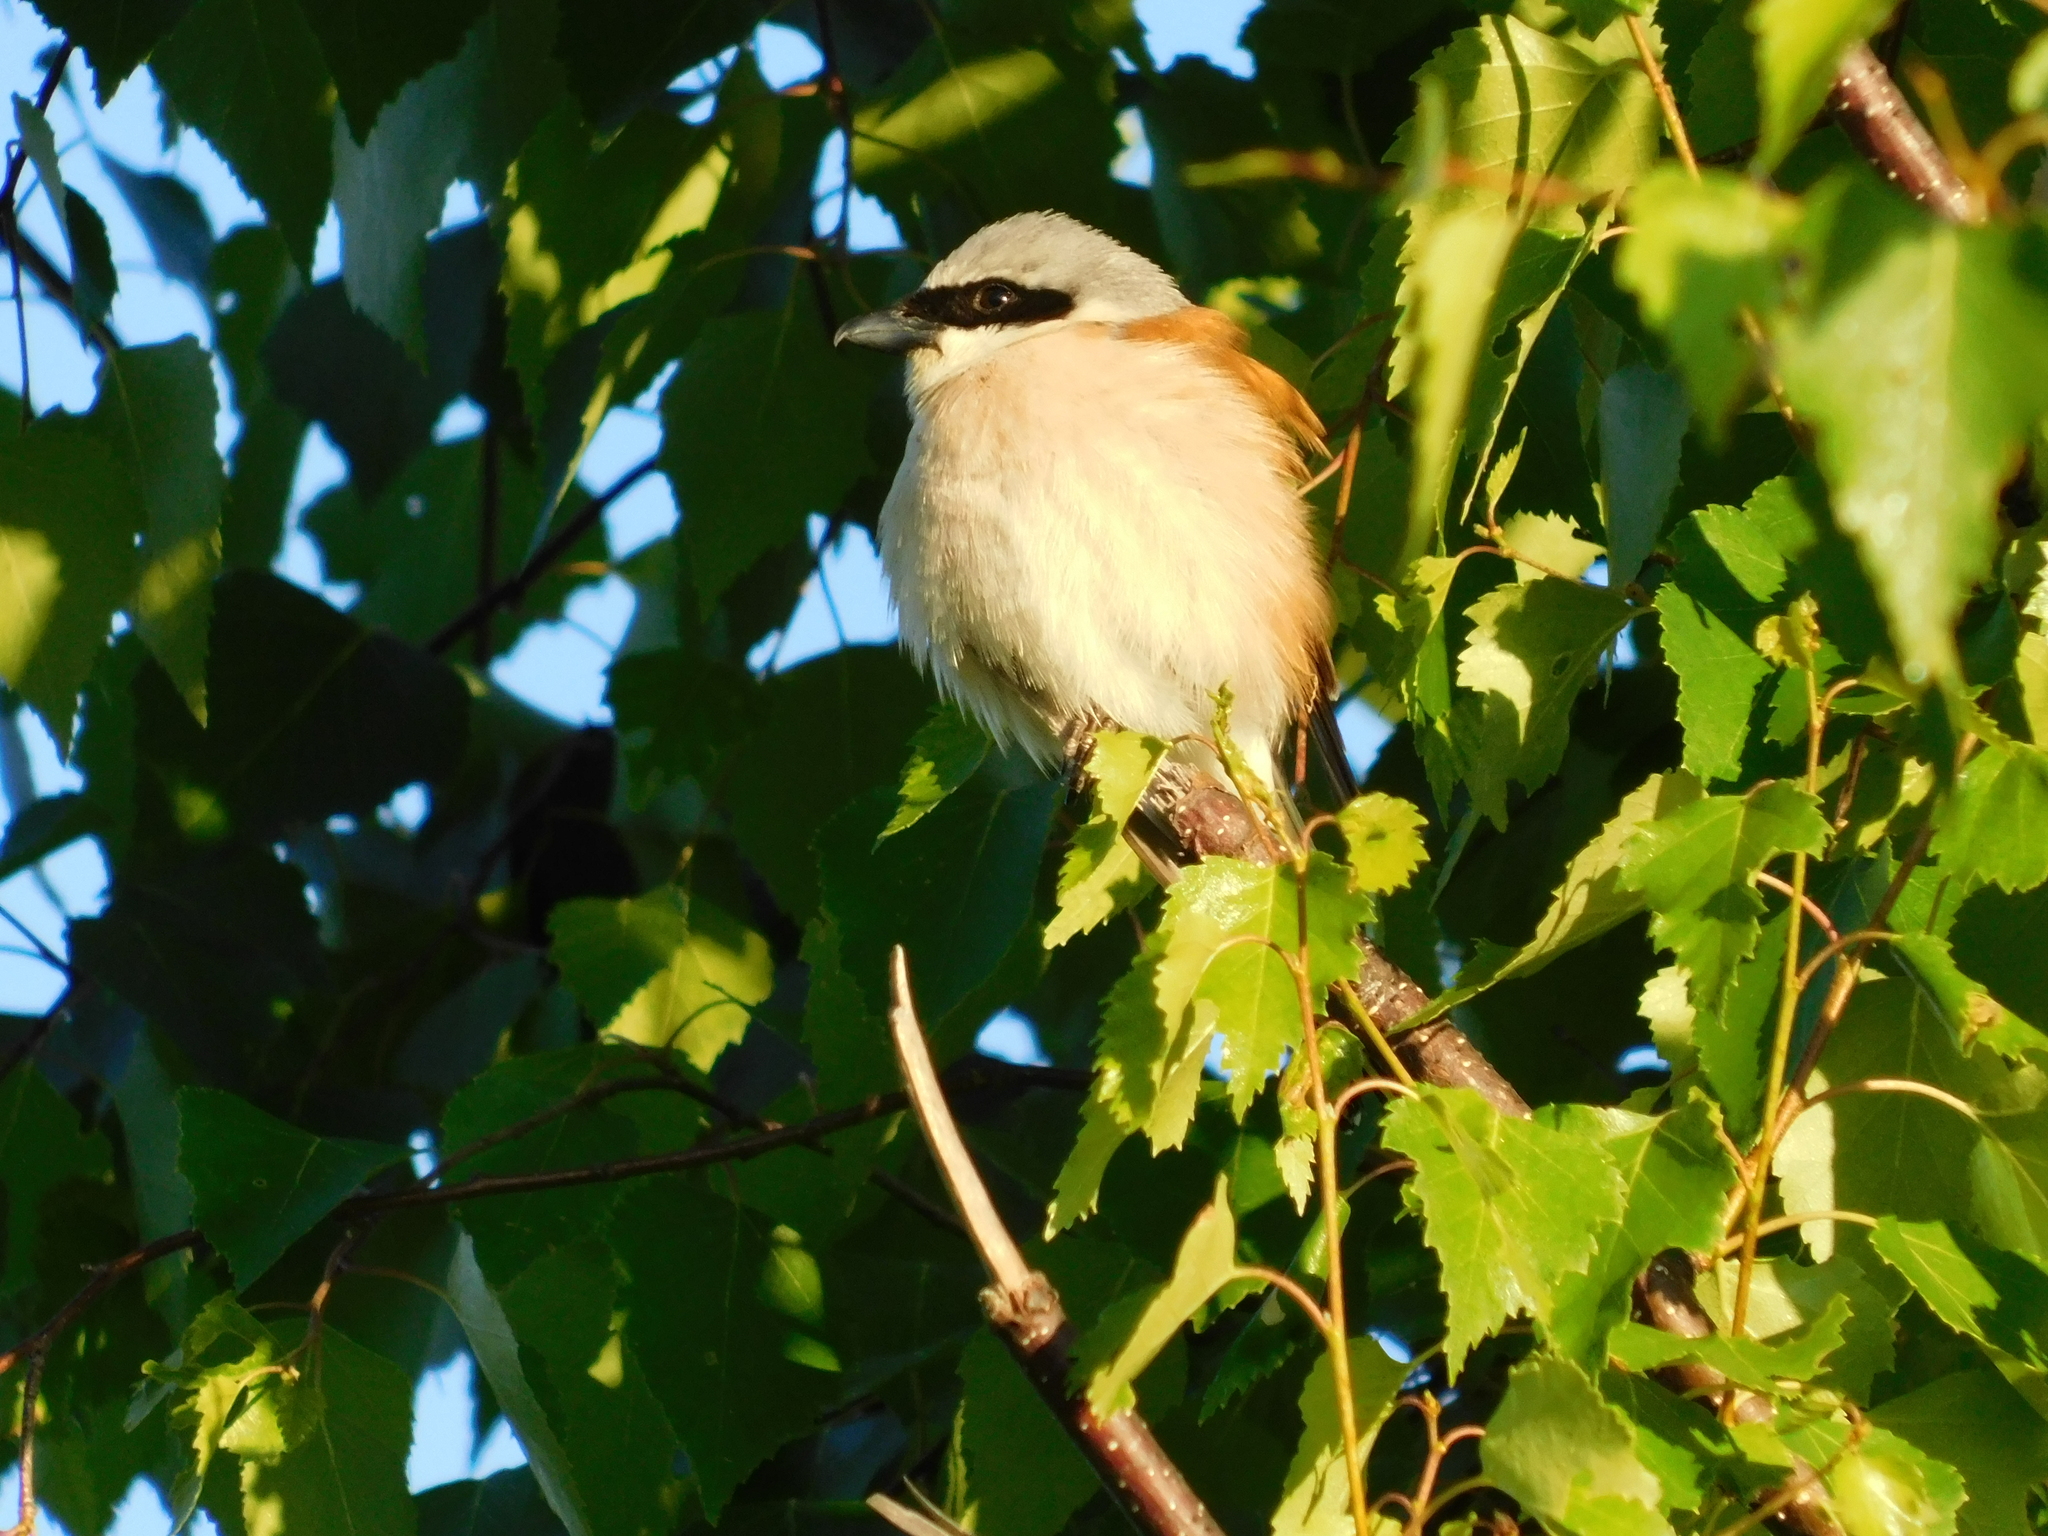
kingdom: Animalia
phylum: Chordata
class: Aves
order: Passeriformes
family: Laniidae
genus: Lanius
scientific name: Lanius collurio
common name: Red-backed shrike
